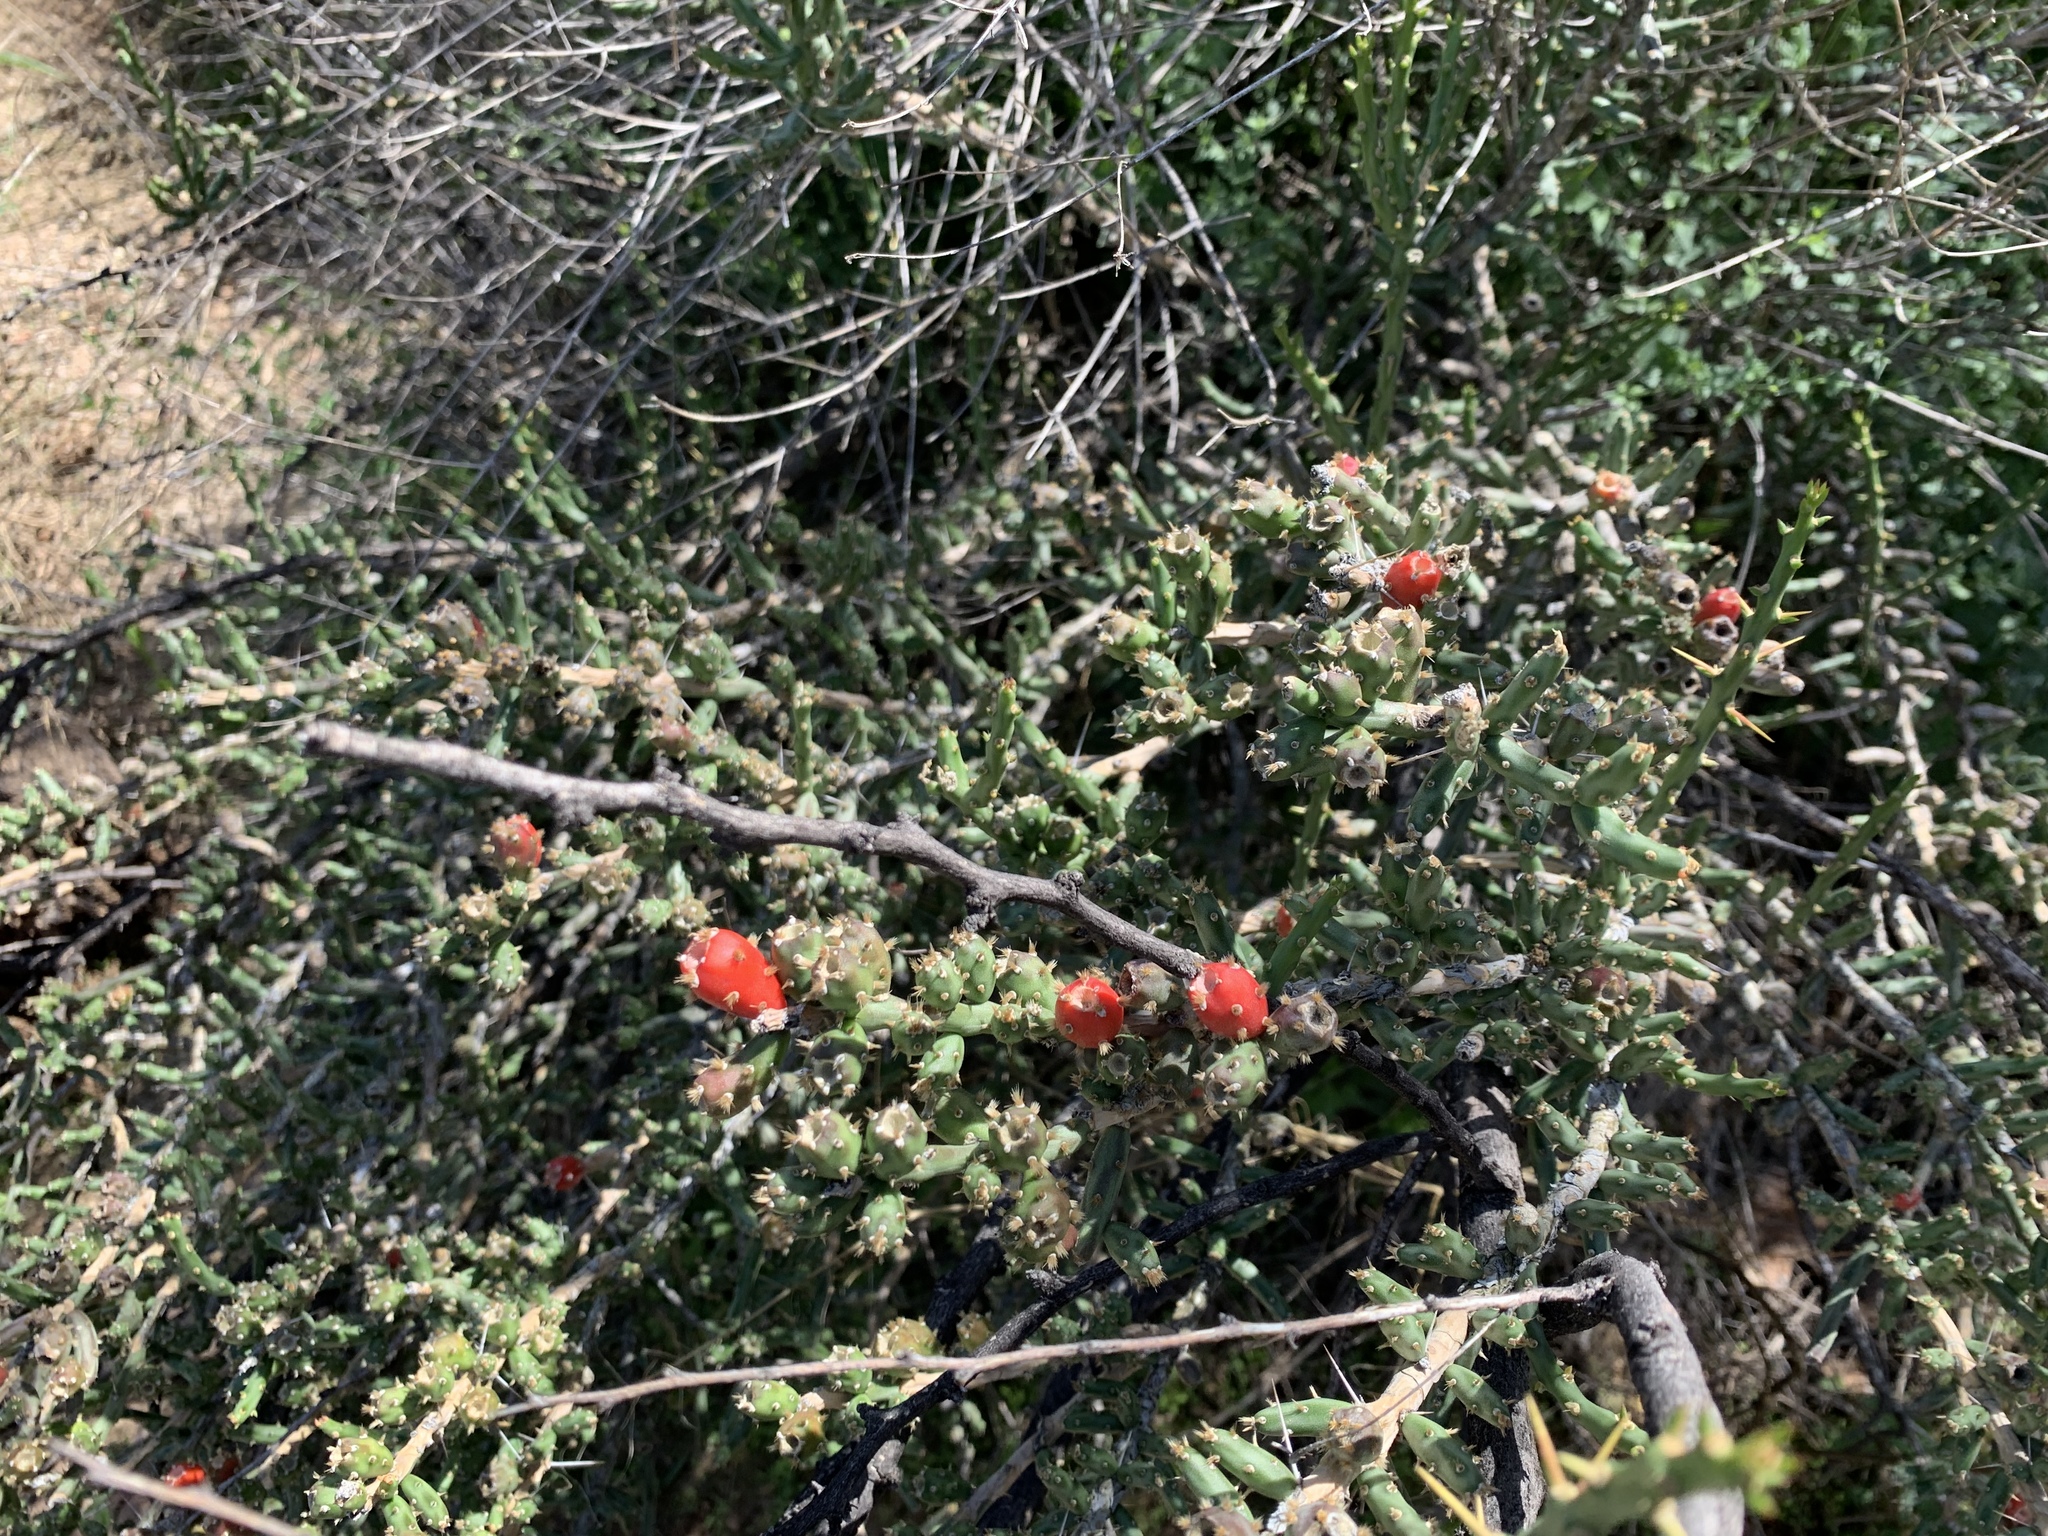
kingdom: Plantae
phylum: Tracheophyta
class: Magnoliopsida
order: Caryophyllales
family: Cactaceae
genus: Cylindropuntia
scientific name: Cylindropuntia leptocaulis
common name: Christmas cactus
